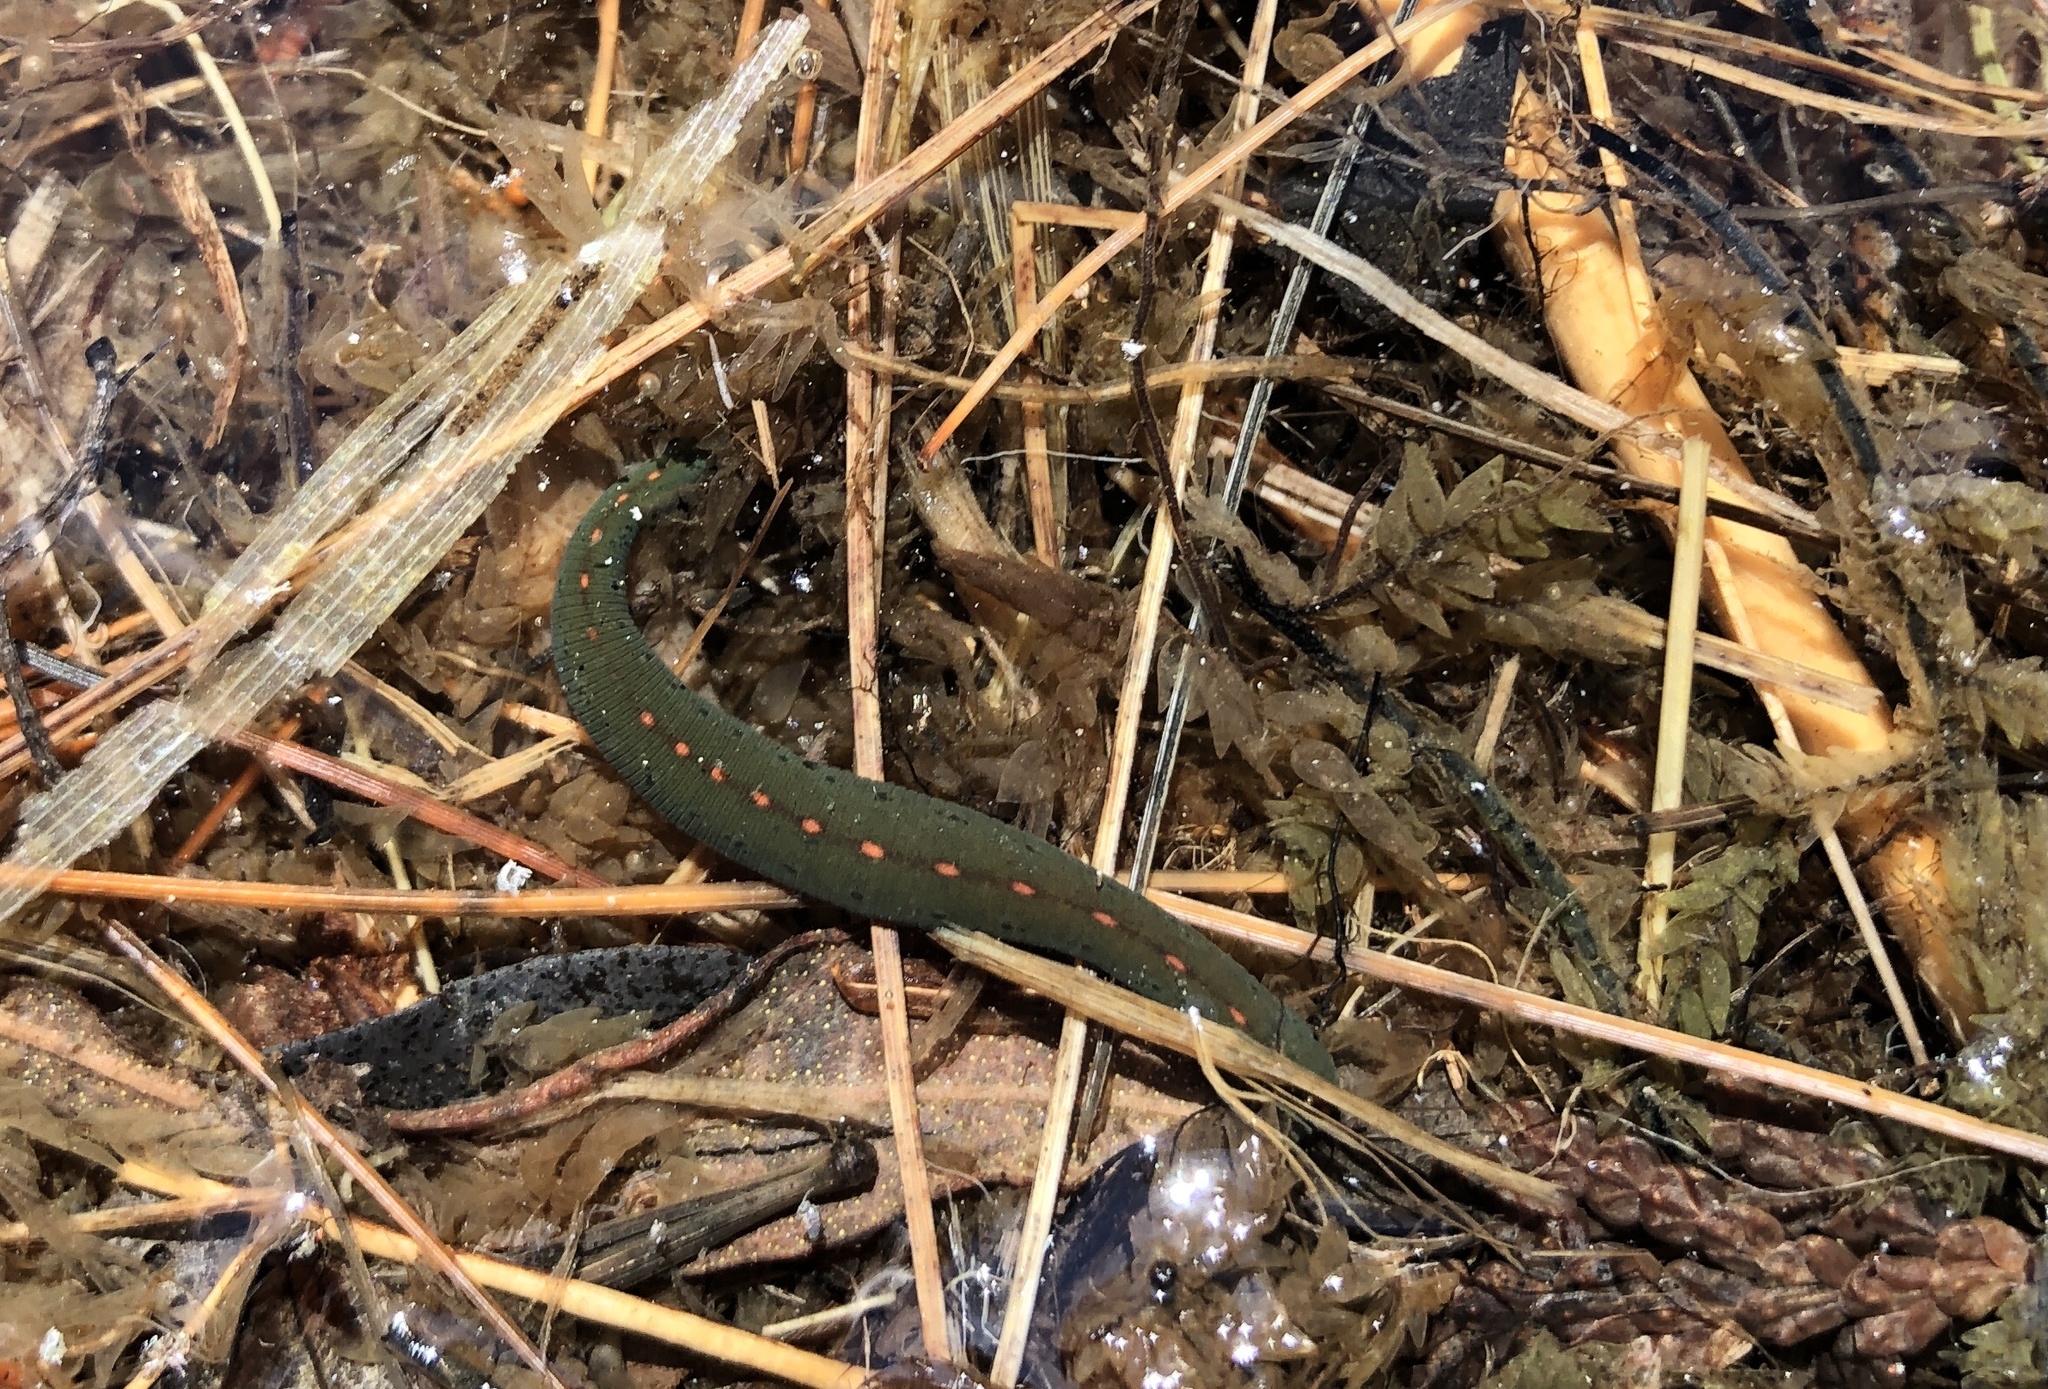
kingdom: Animalia
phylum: Annelida
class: Clitellata
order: Arhynchobdellida
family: Hirudinidae
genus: Macrobdella
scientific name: Macrobdella decora
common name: North american leech
